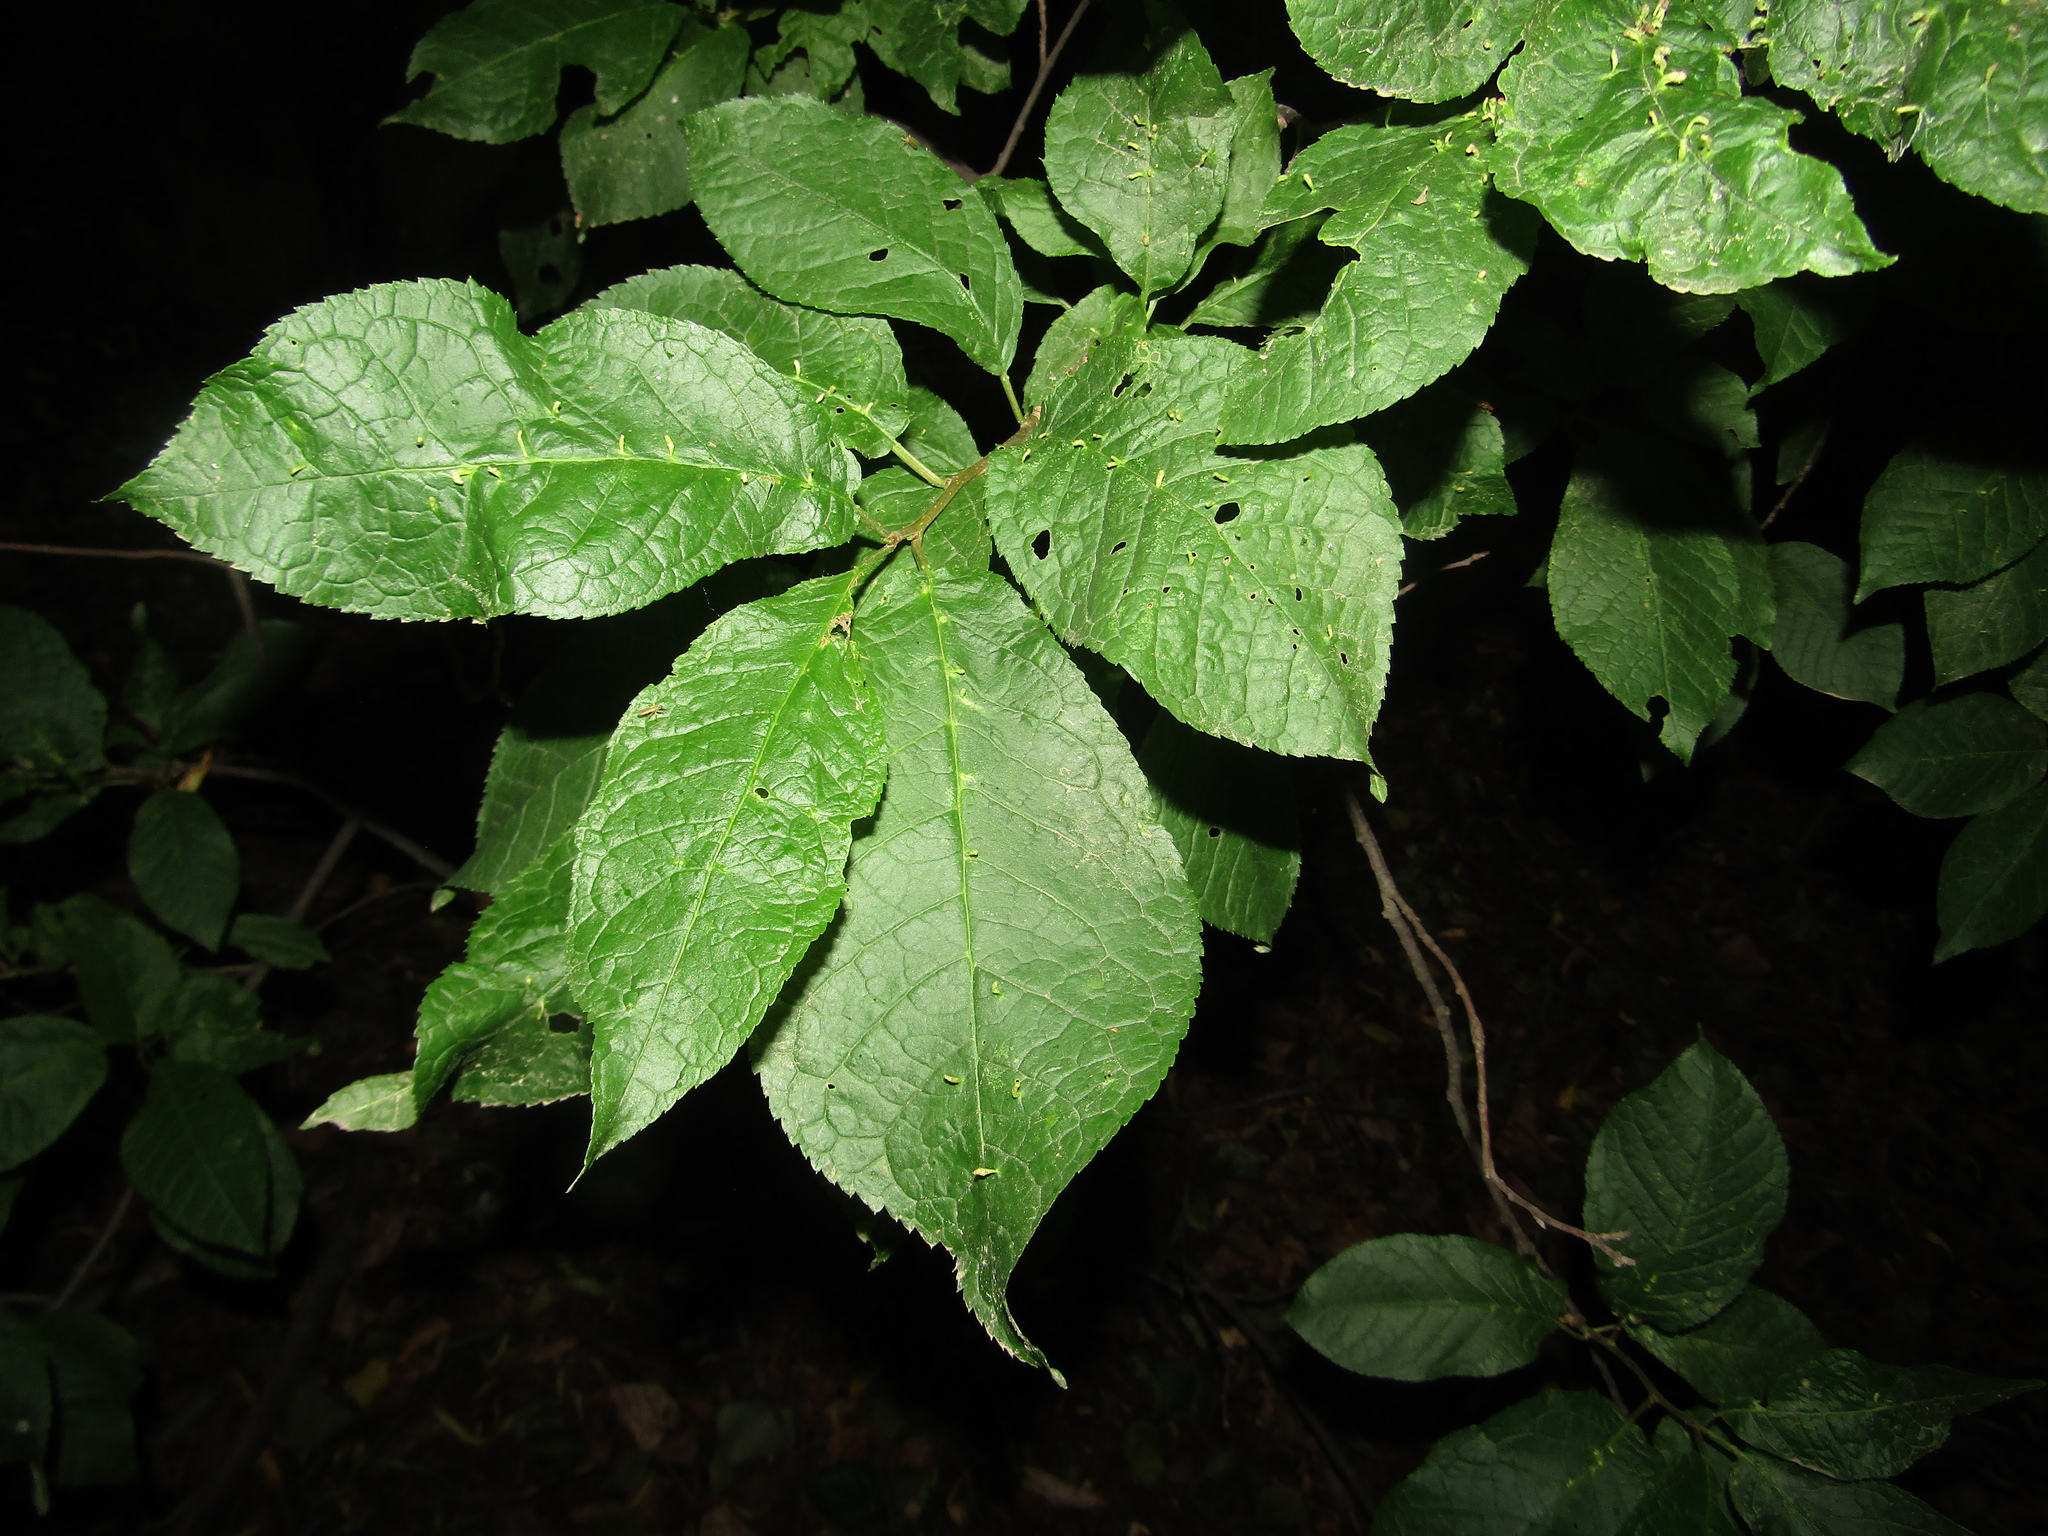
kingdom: Plantae
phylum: Tracheophyta
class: Magnoliopsida
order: Rosales
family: Rosaceae
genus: Prunus
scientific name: Prunus padus
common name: Bird cherry
